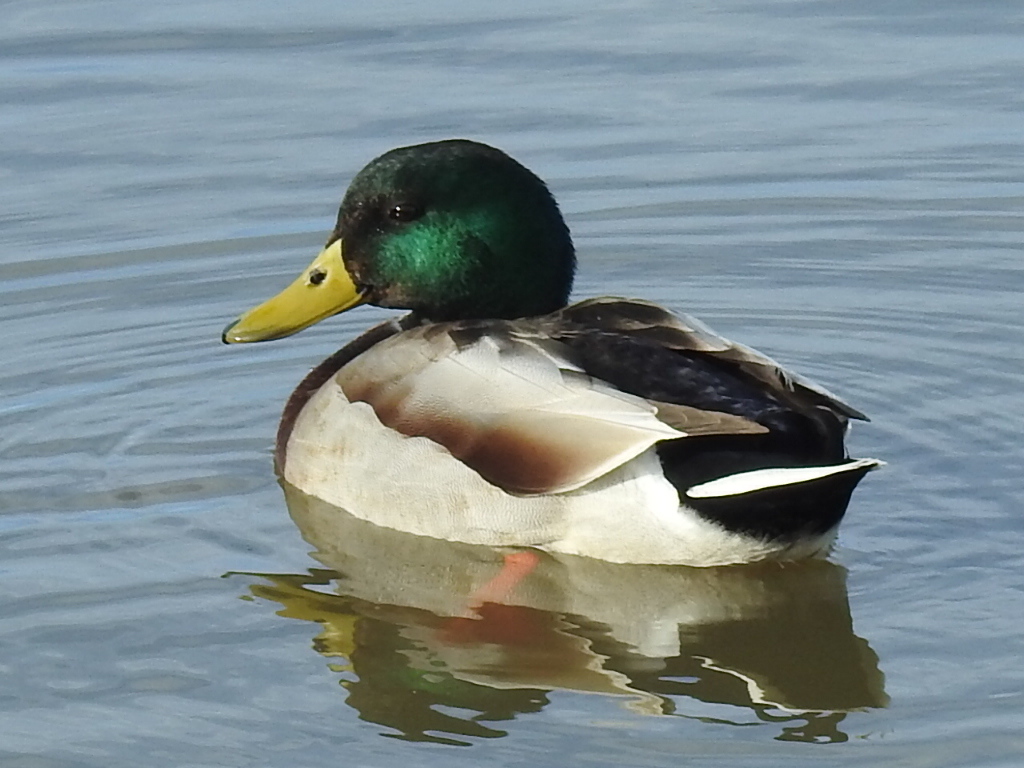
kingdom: Animalia
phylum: Chordata
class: Aves
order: Anseriformes
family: Anatidae
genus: Anas
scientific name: Anas platyrhynchos
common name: Mallard
